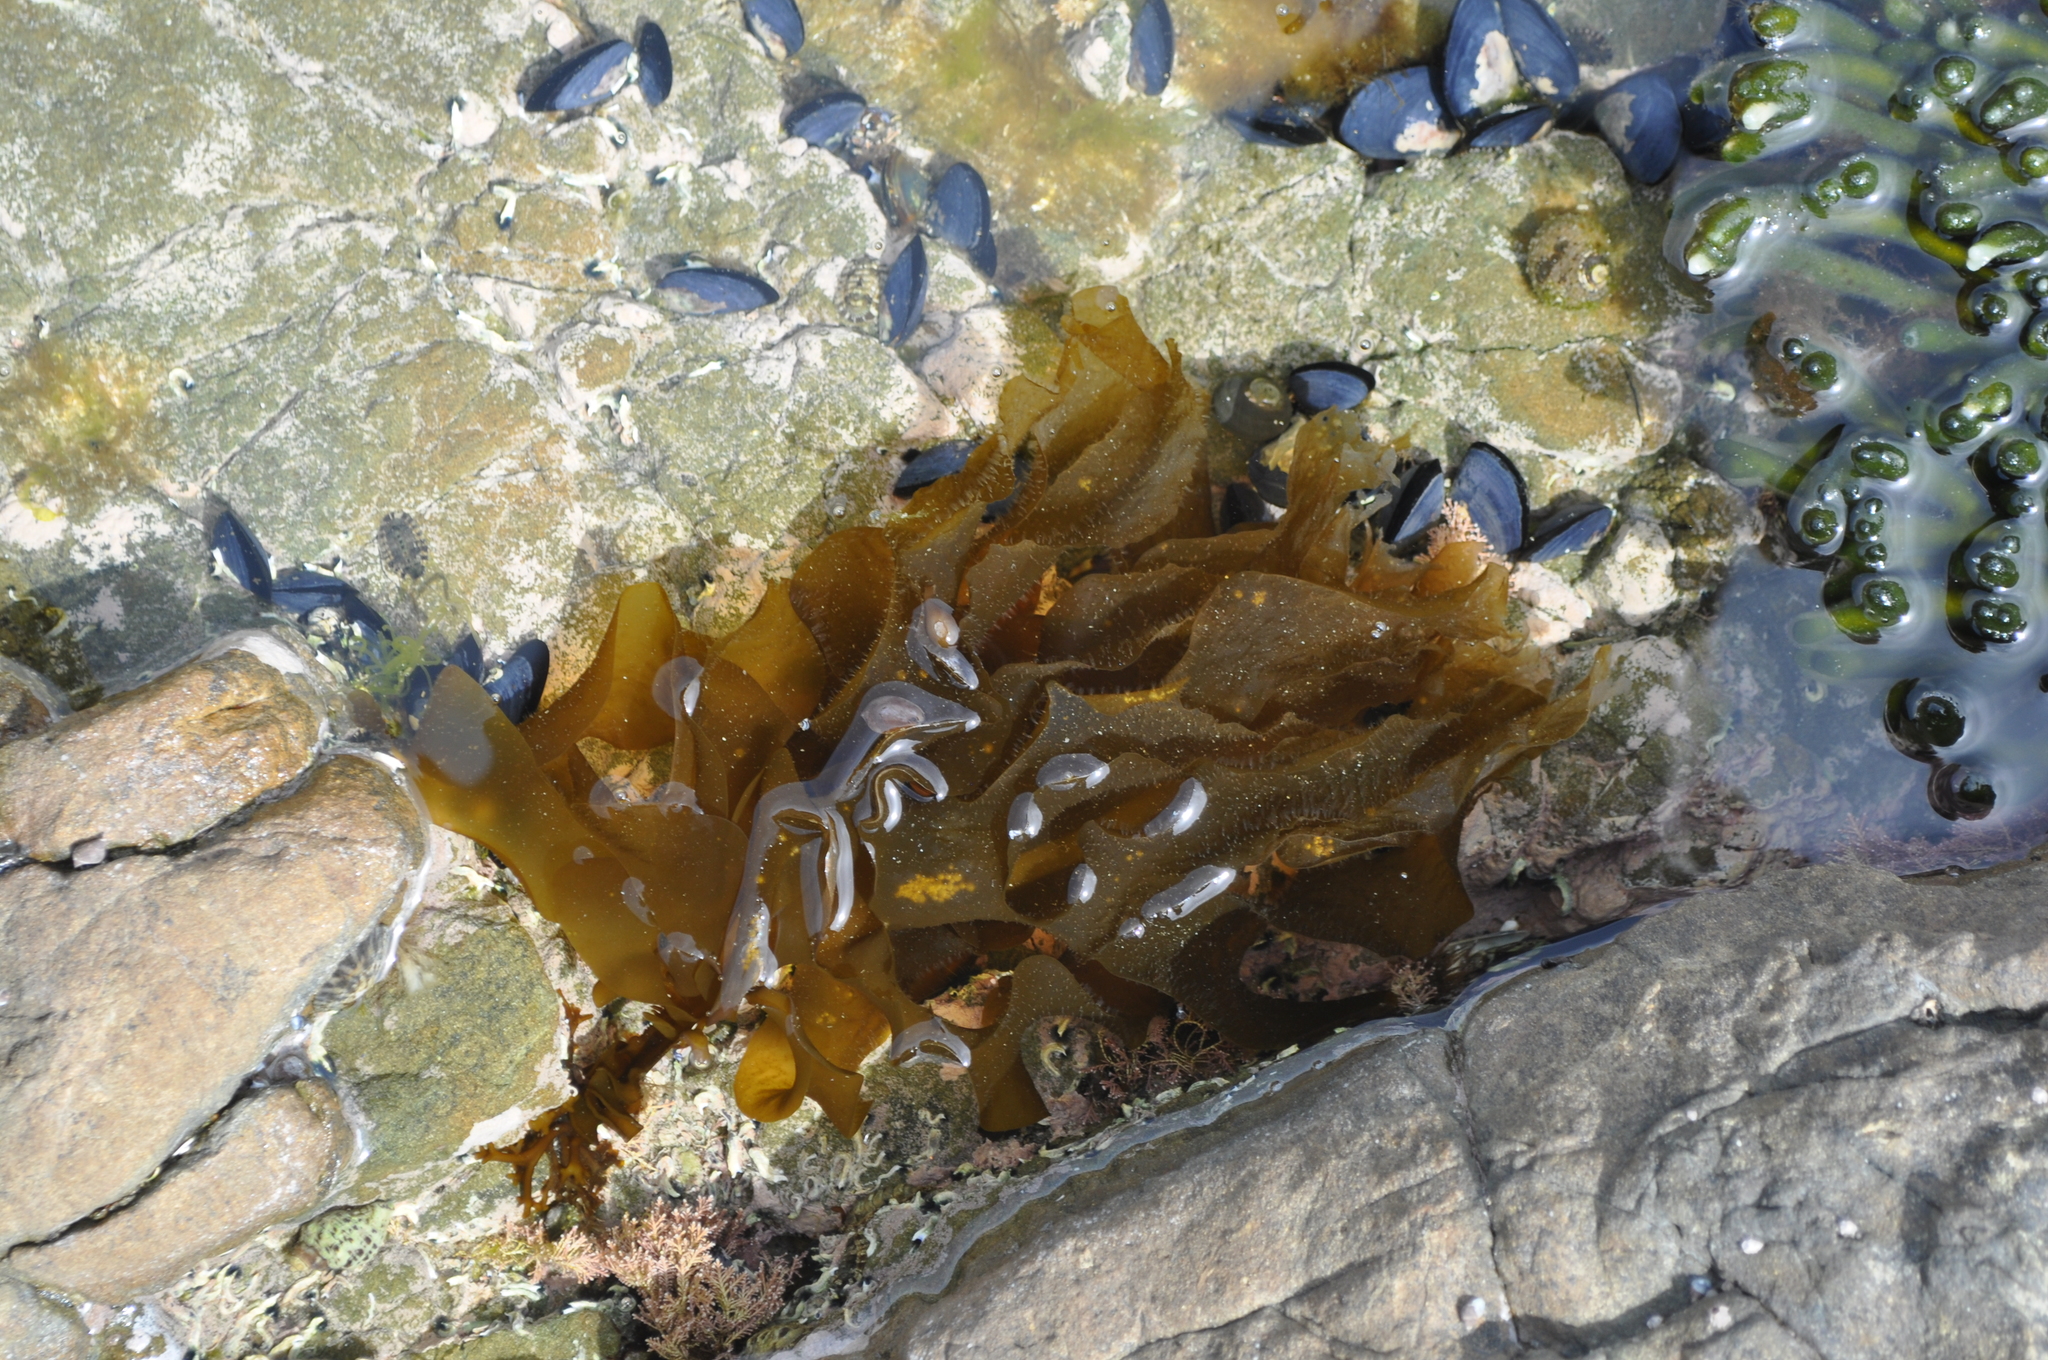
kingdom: Chromista
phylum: Ochrophyta
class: Phaeophyceae
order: Laminariales
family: Alariaceae
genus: Undaria
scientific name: Undaria pinnatifida
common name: Asian kelp
